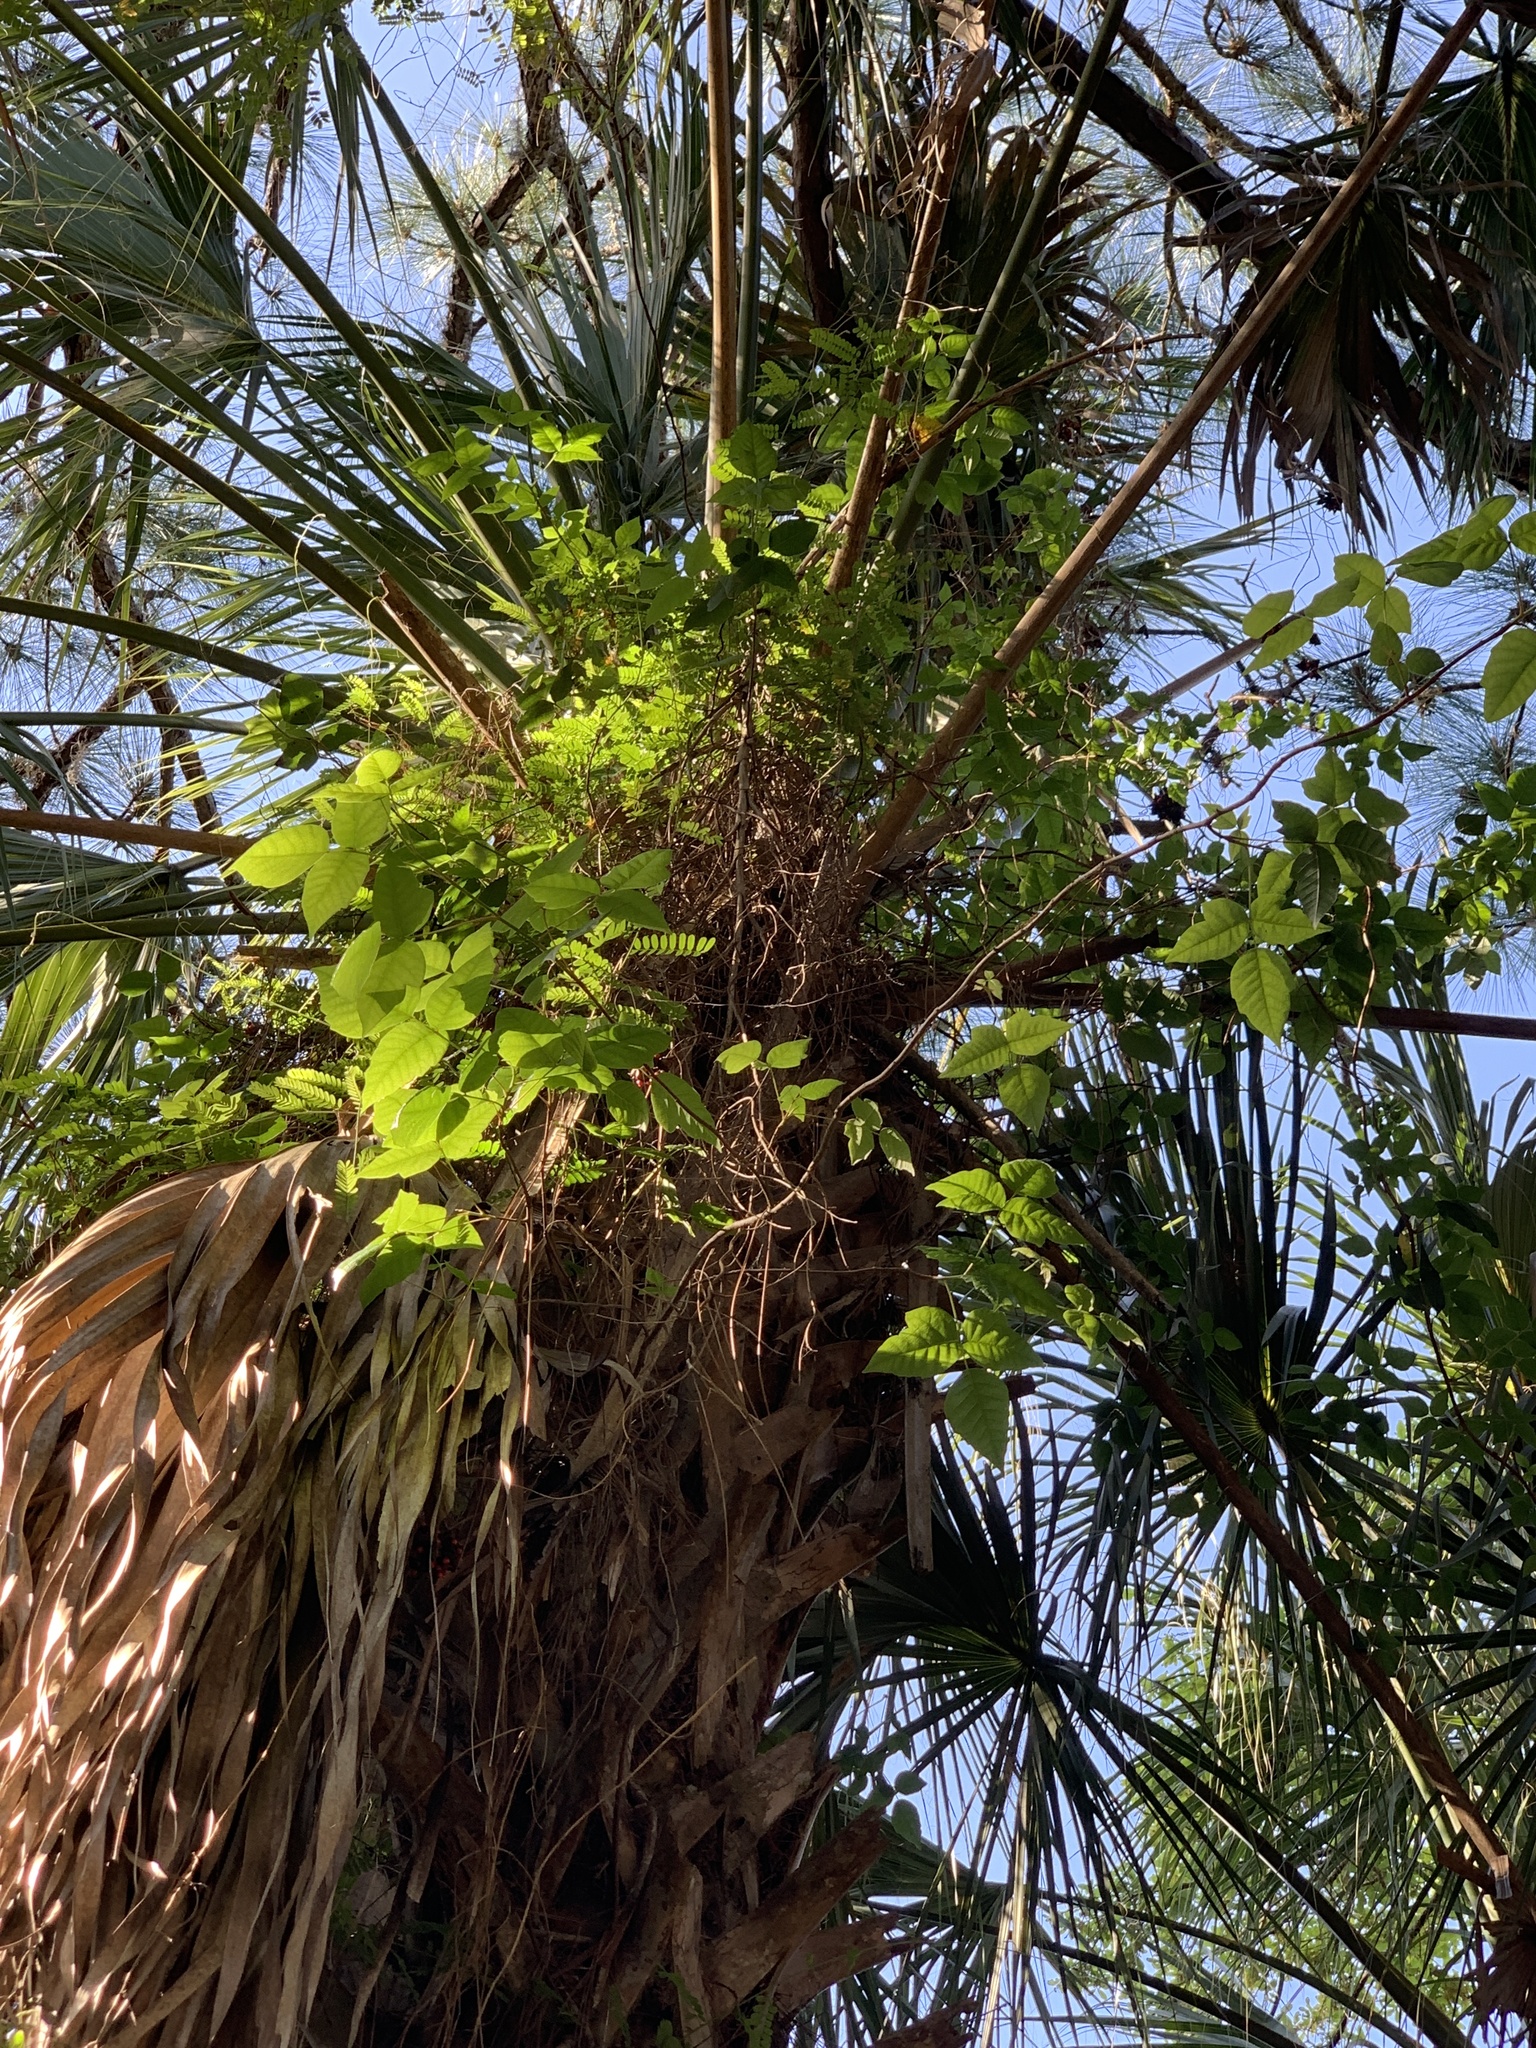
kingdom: Plantae
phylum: Tracheophyta
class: Magnoliopsida
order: Fabales
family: Fabaceae
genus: Abrus
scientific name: Abrus precatorius
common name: Rosarypea
